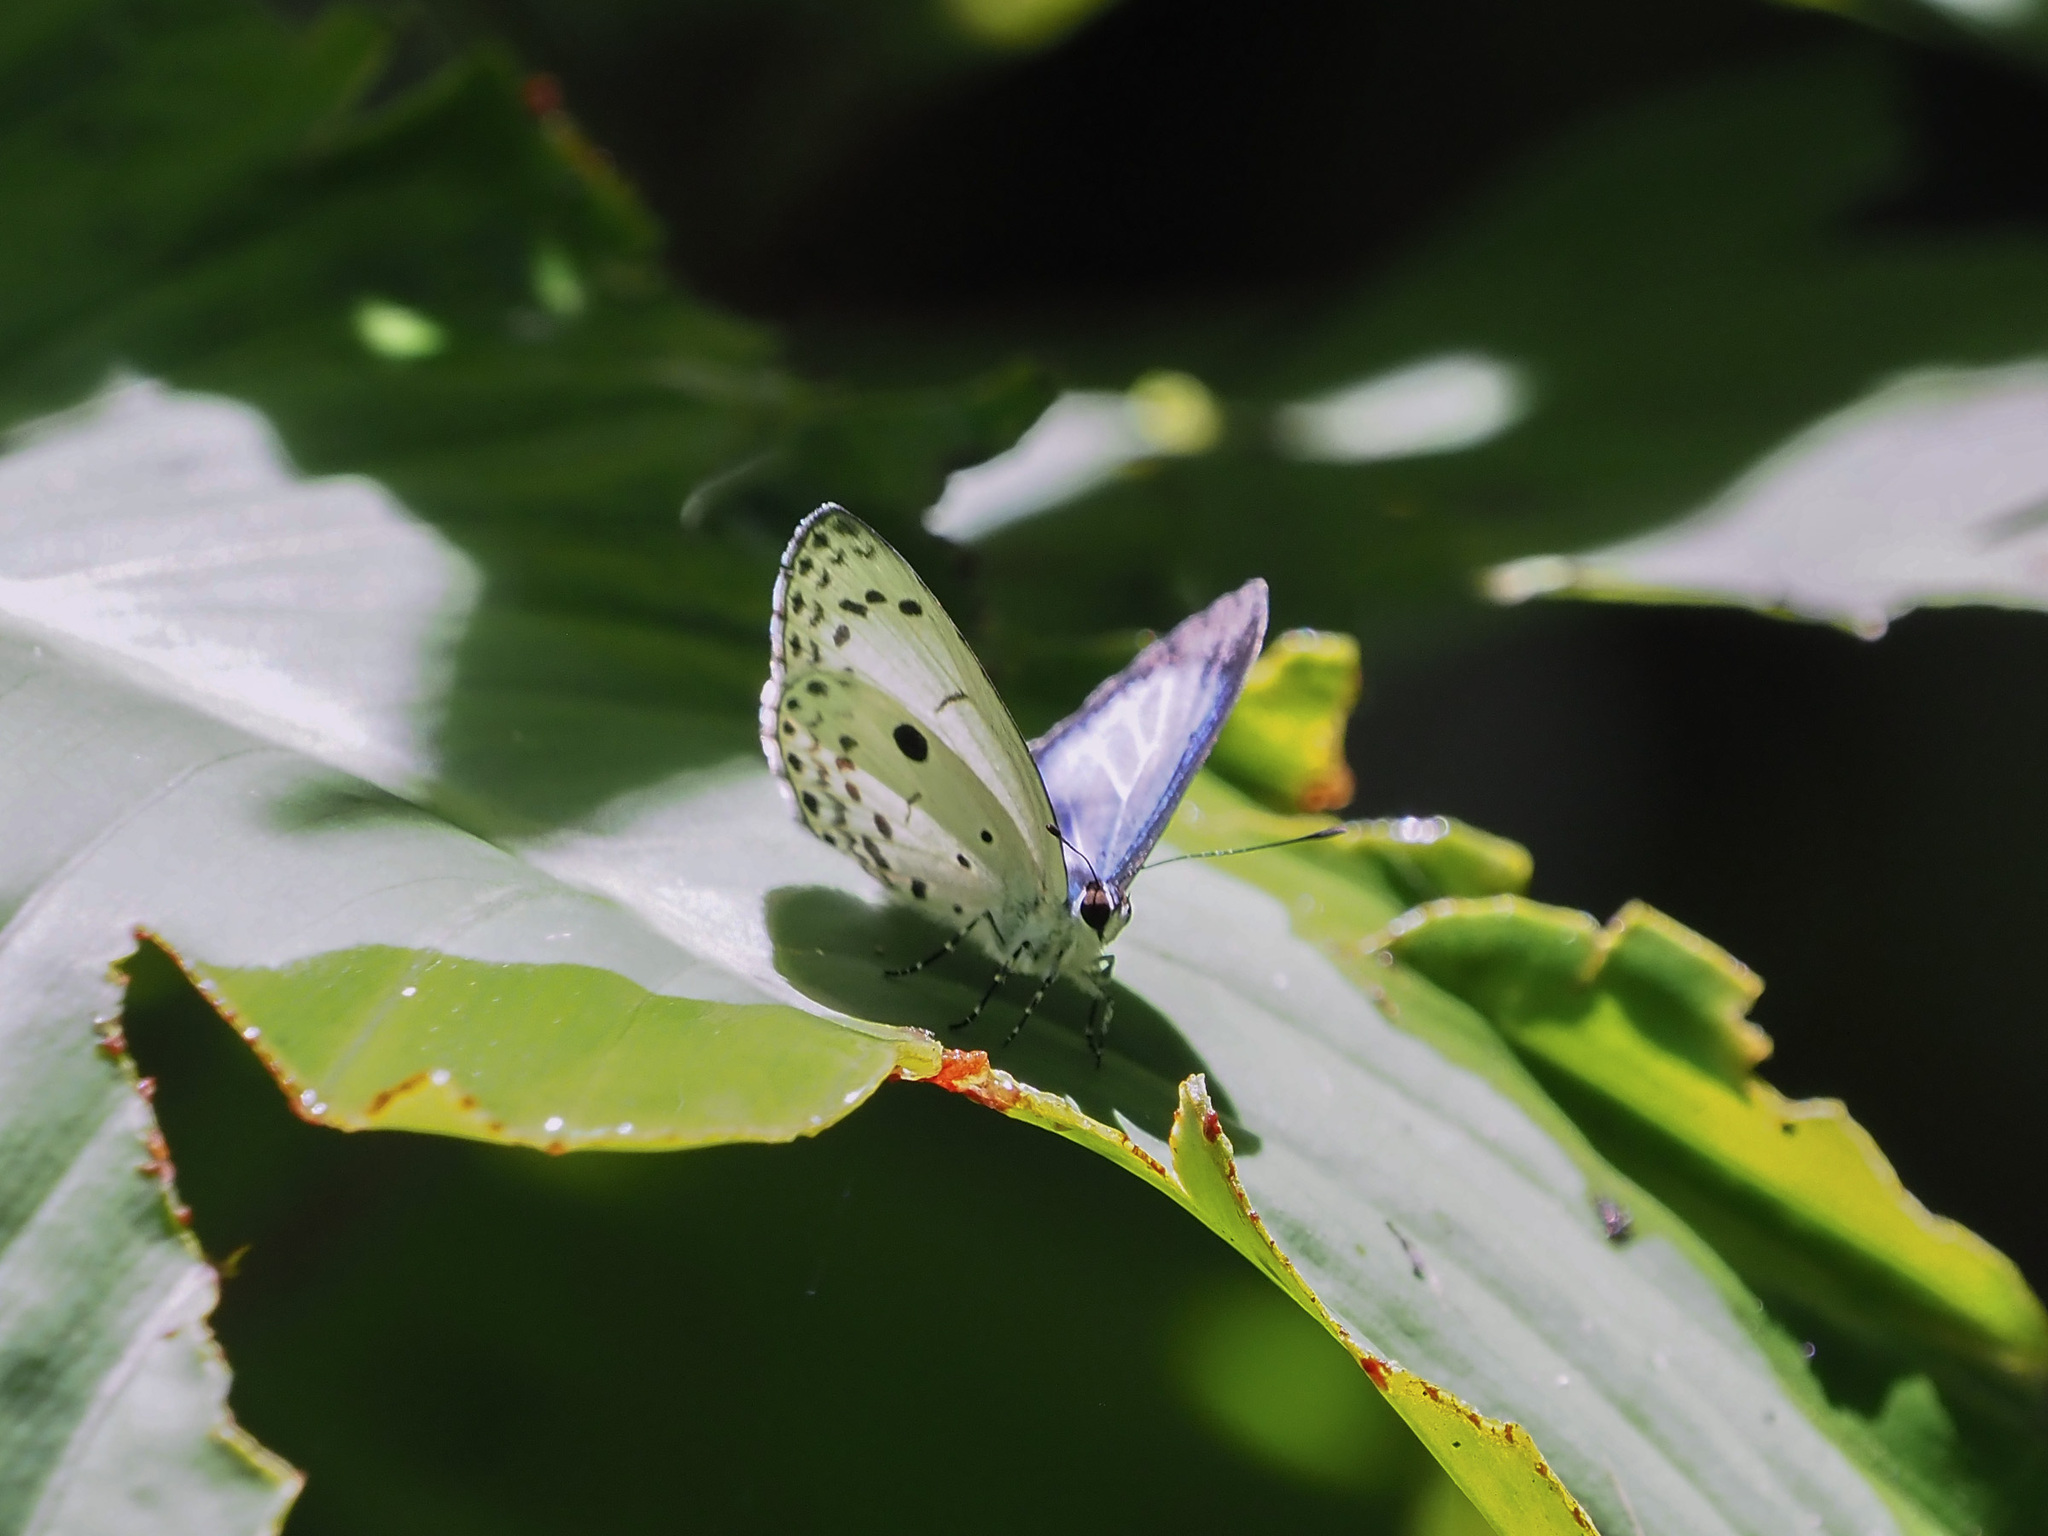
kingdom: Animalia
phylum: Arthropoda
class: Insecta
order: Lepidoptera
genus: Plautella
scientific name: Plautella
